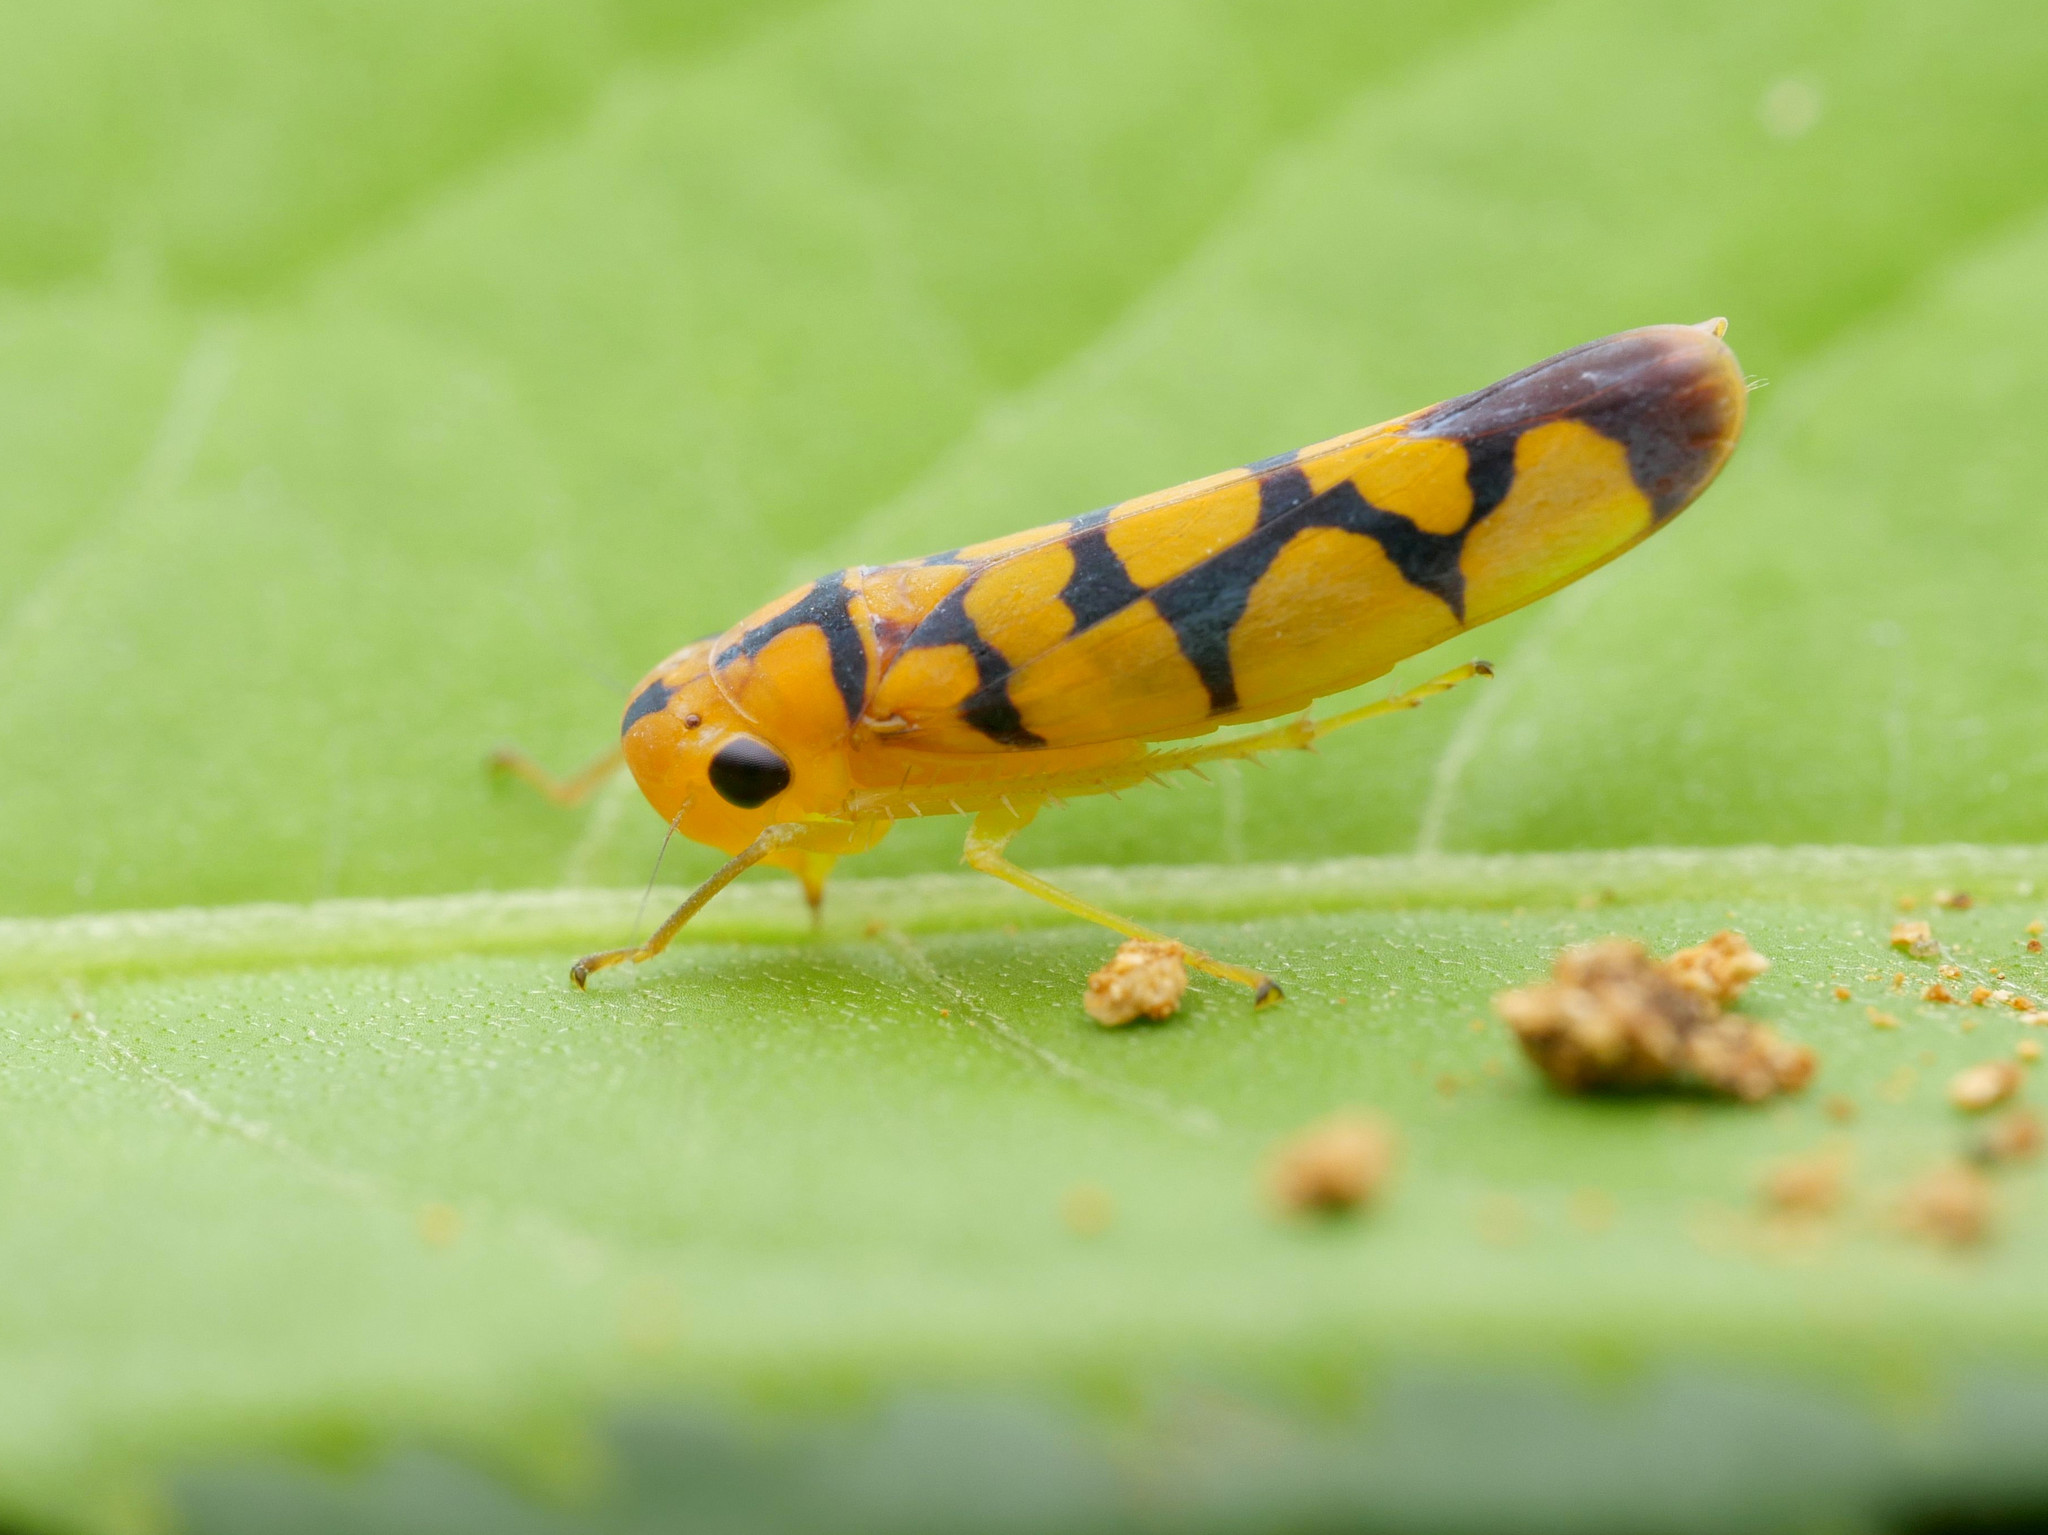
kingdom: Animalia
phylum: Arthropoda
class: Insecta
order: Hemiptera
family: Cicadellidae
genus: Pawiloma
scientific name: Pawiloma multilunatula
